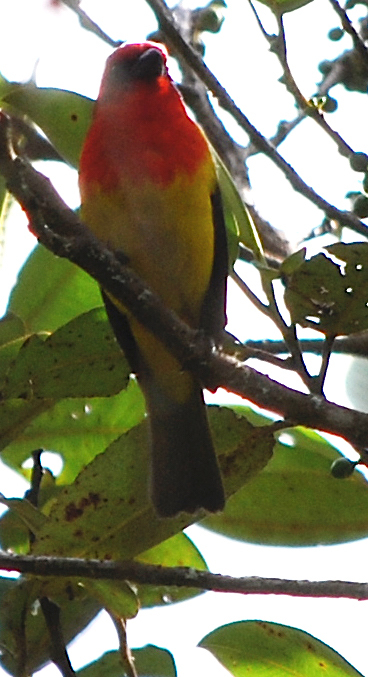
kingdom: Animalia
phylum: Chordata
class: Aves
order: Passeriformes
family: Cardinalidae
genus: Piranga
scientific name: Piranga rubriceps
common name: Red-hooded tanager
